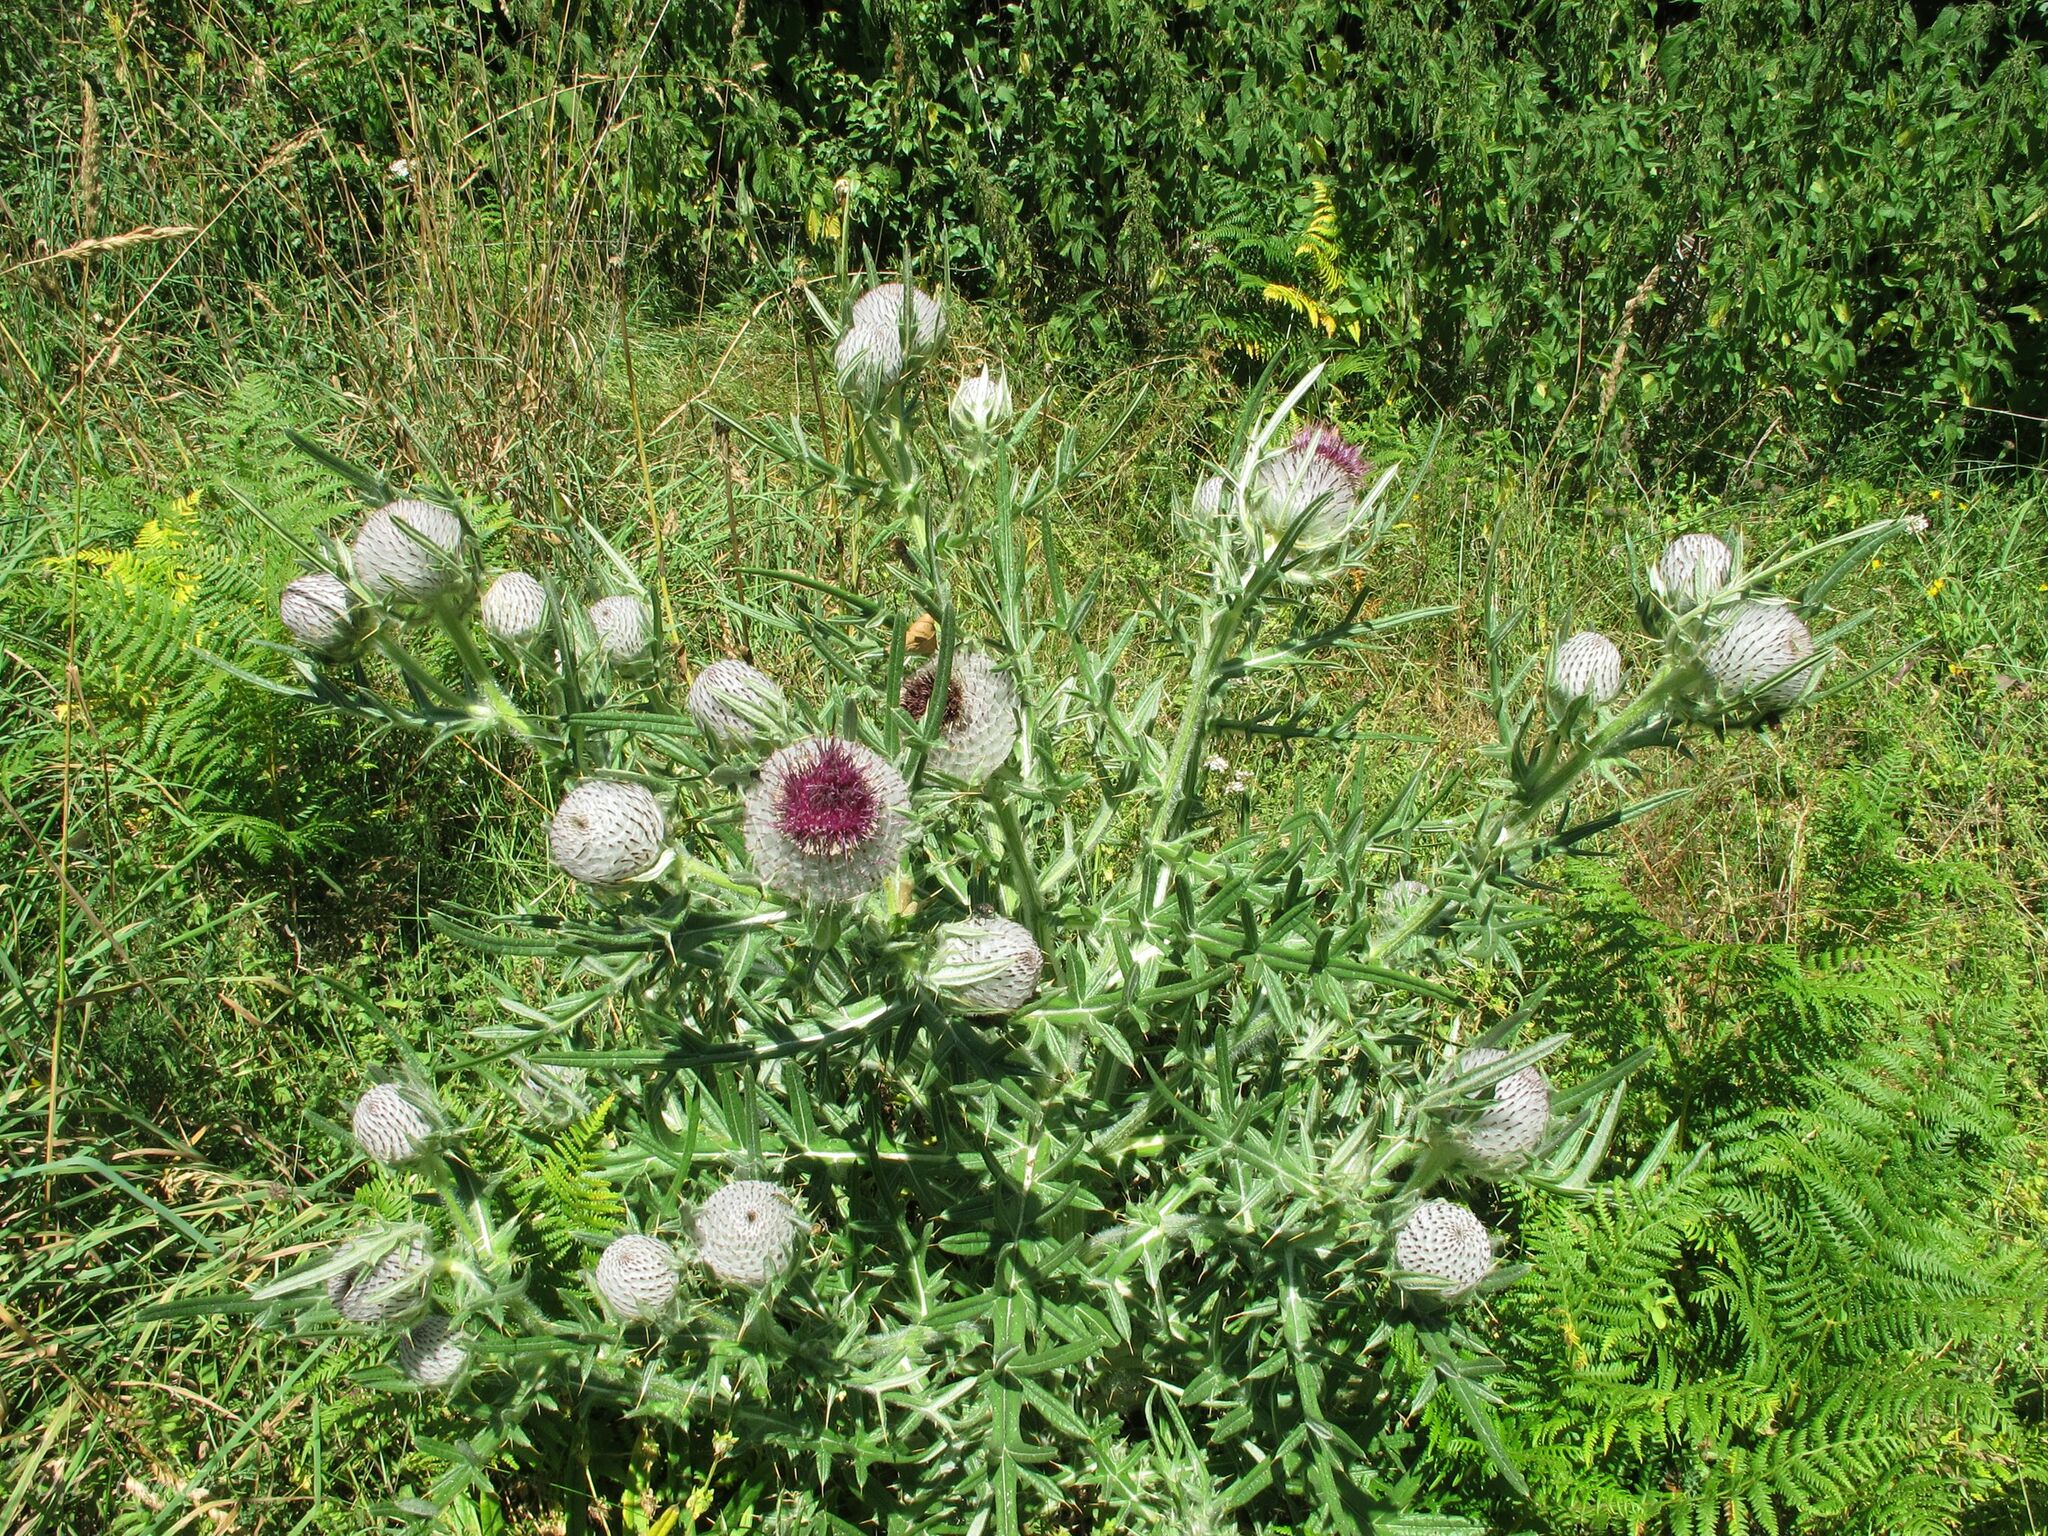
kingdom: Plantae
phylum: Tracheophyta
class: Magnoliopsida
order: Asterales
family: Asteraceae
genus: Lophiolepis
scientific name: Lophiolepis eriophora
